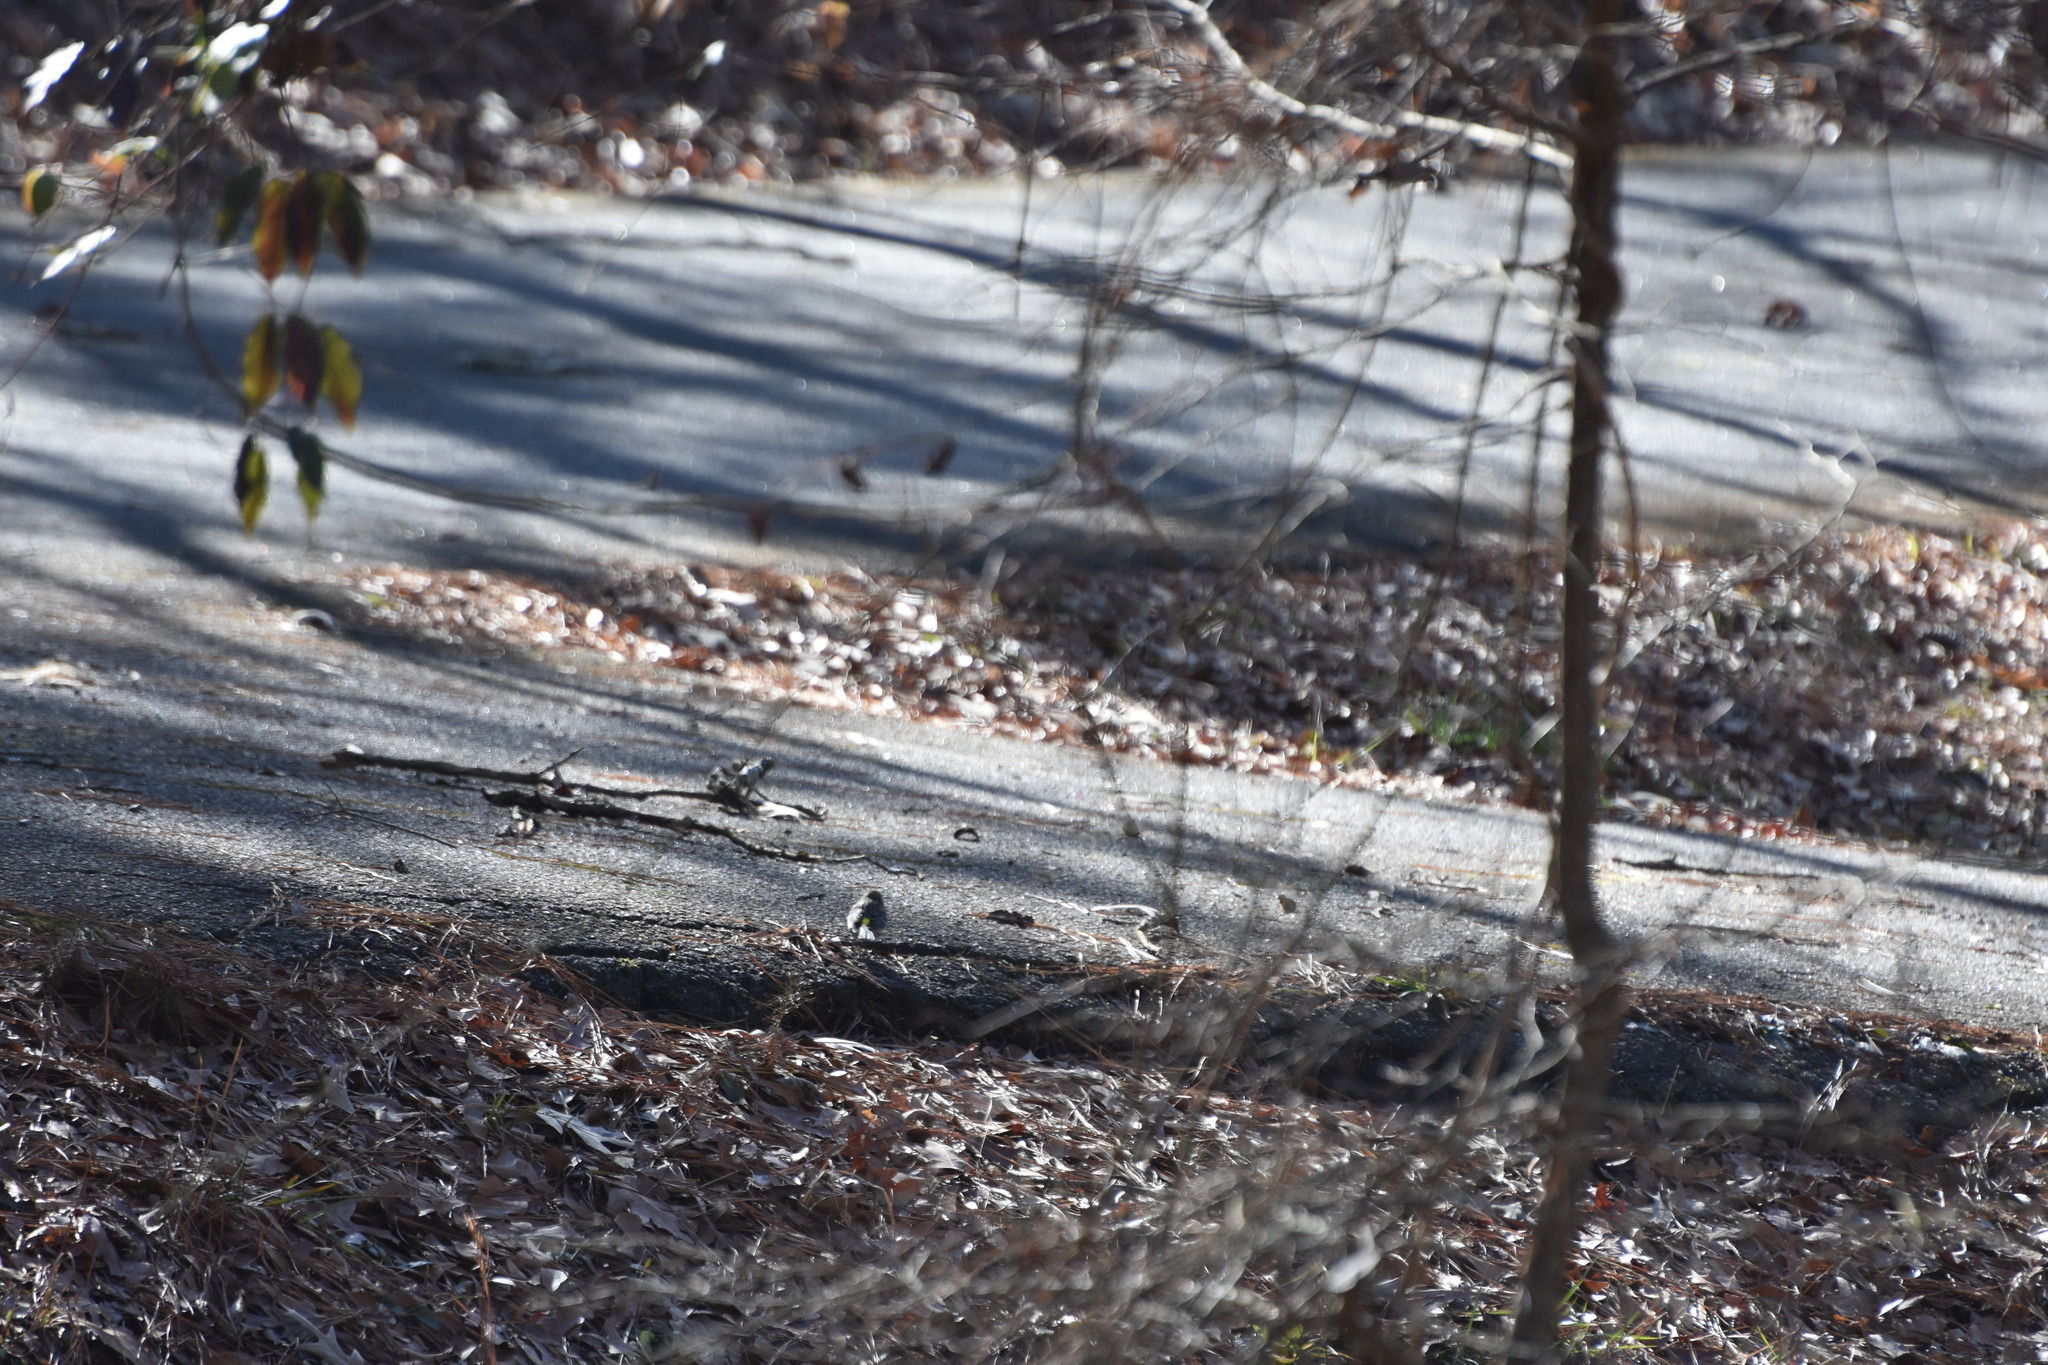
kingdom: Animalia
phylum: Chordata
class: Aves
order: Passeriformes
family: Fringillidae
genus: Haemorhous
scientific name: Haemorhous mexicanus
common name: House finch
